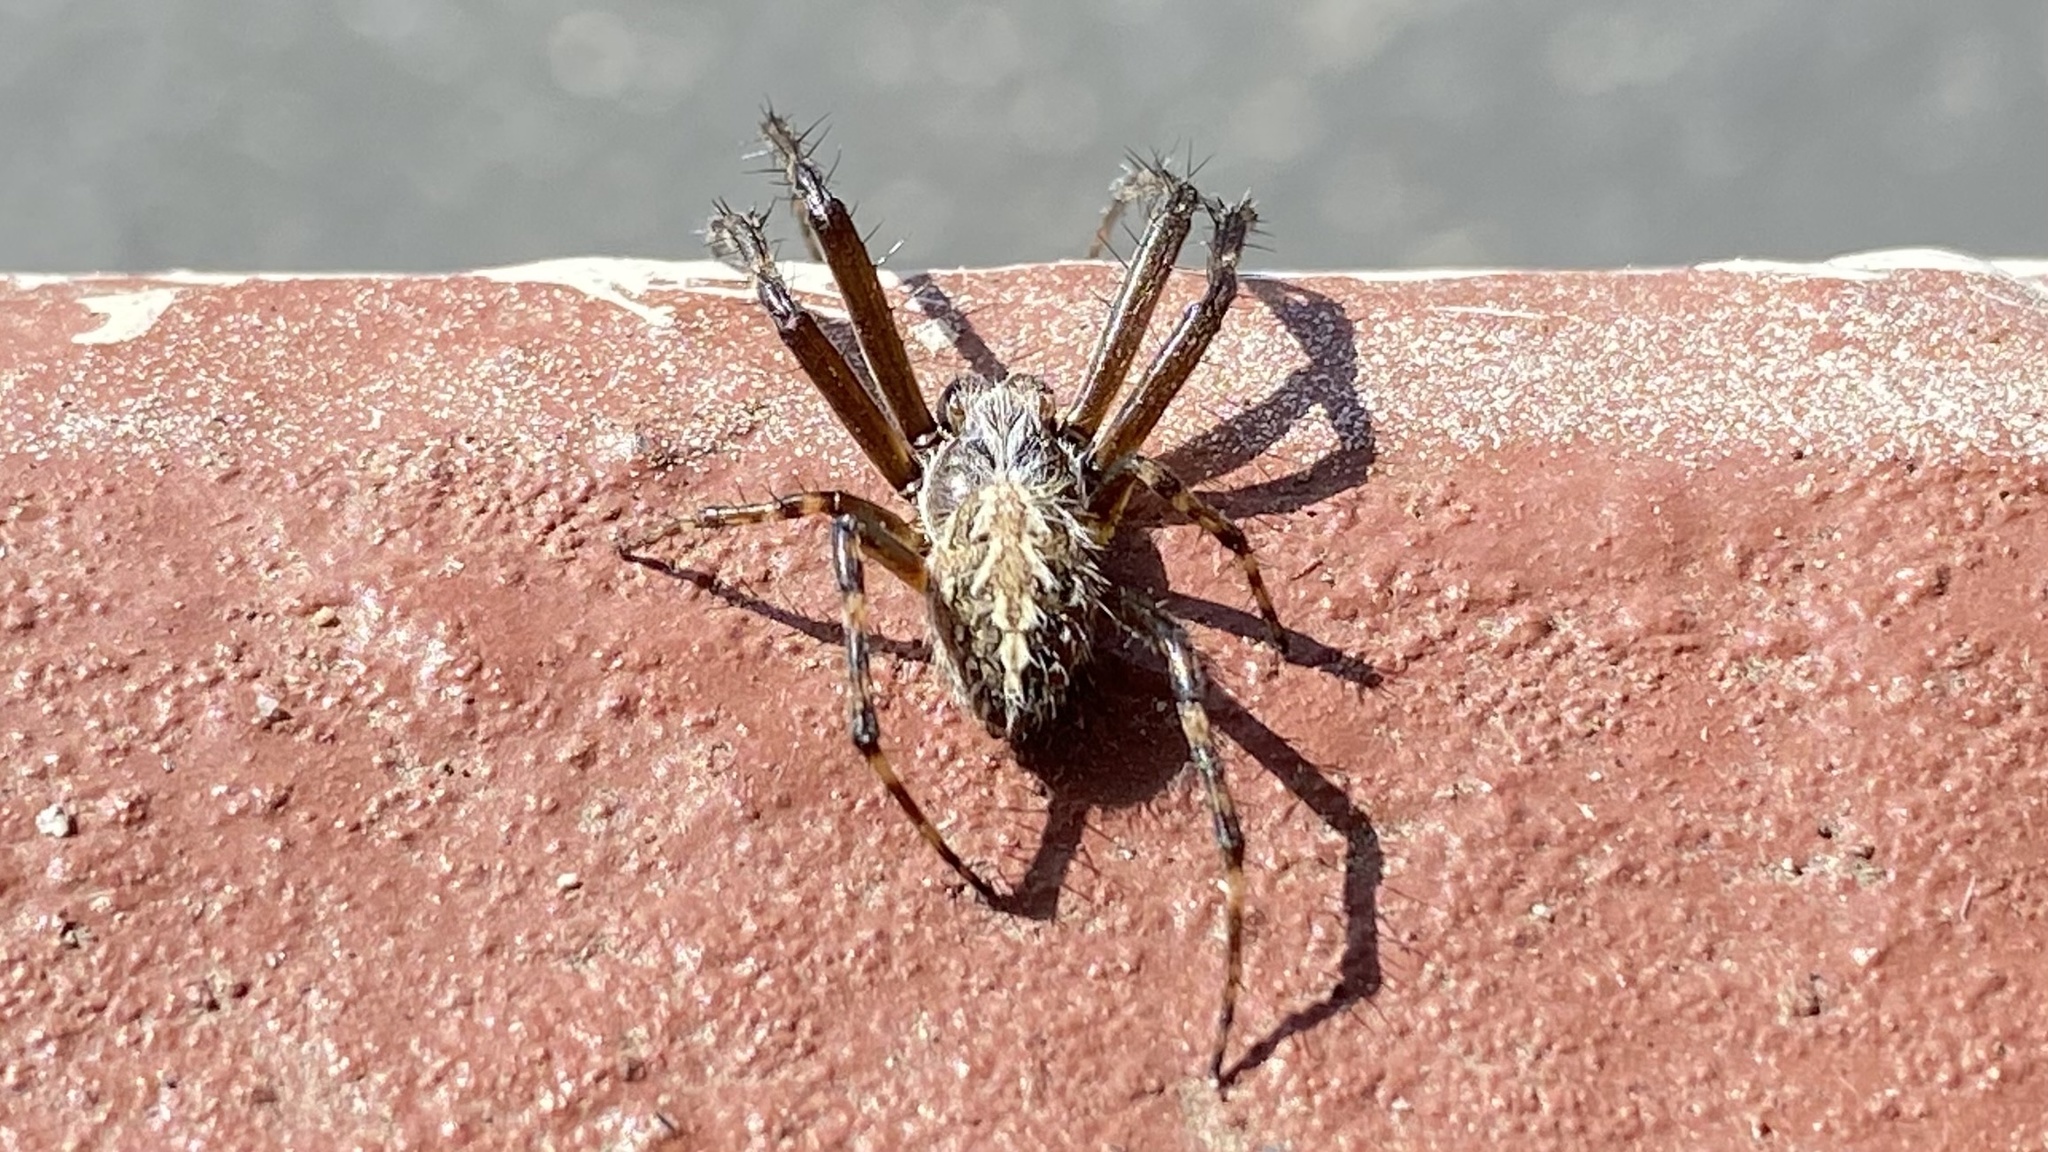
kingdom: Animalia
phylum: Arthropoda
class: Arachnida
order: Araneae
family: Araneidae
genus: Aculepeira
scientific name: Aculepeira packardi
